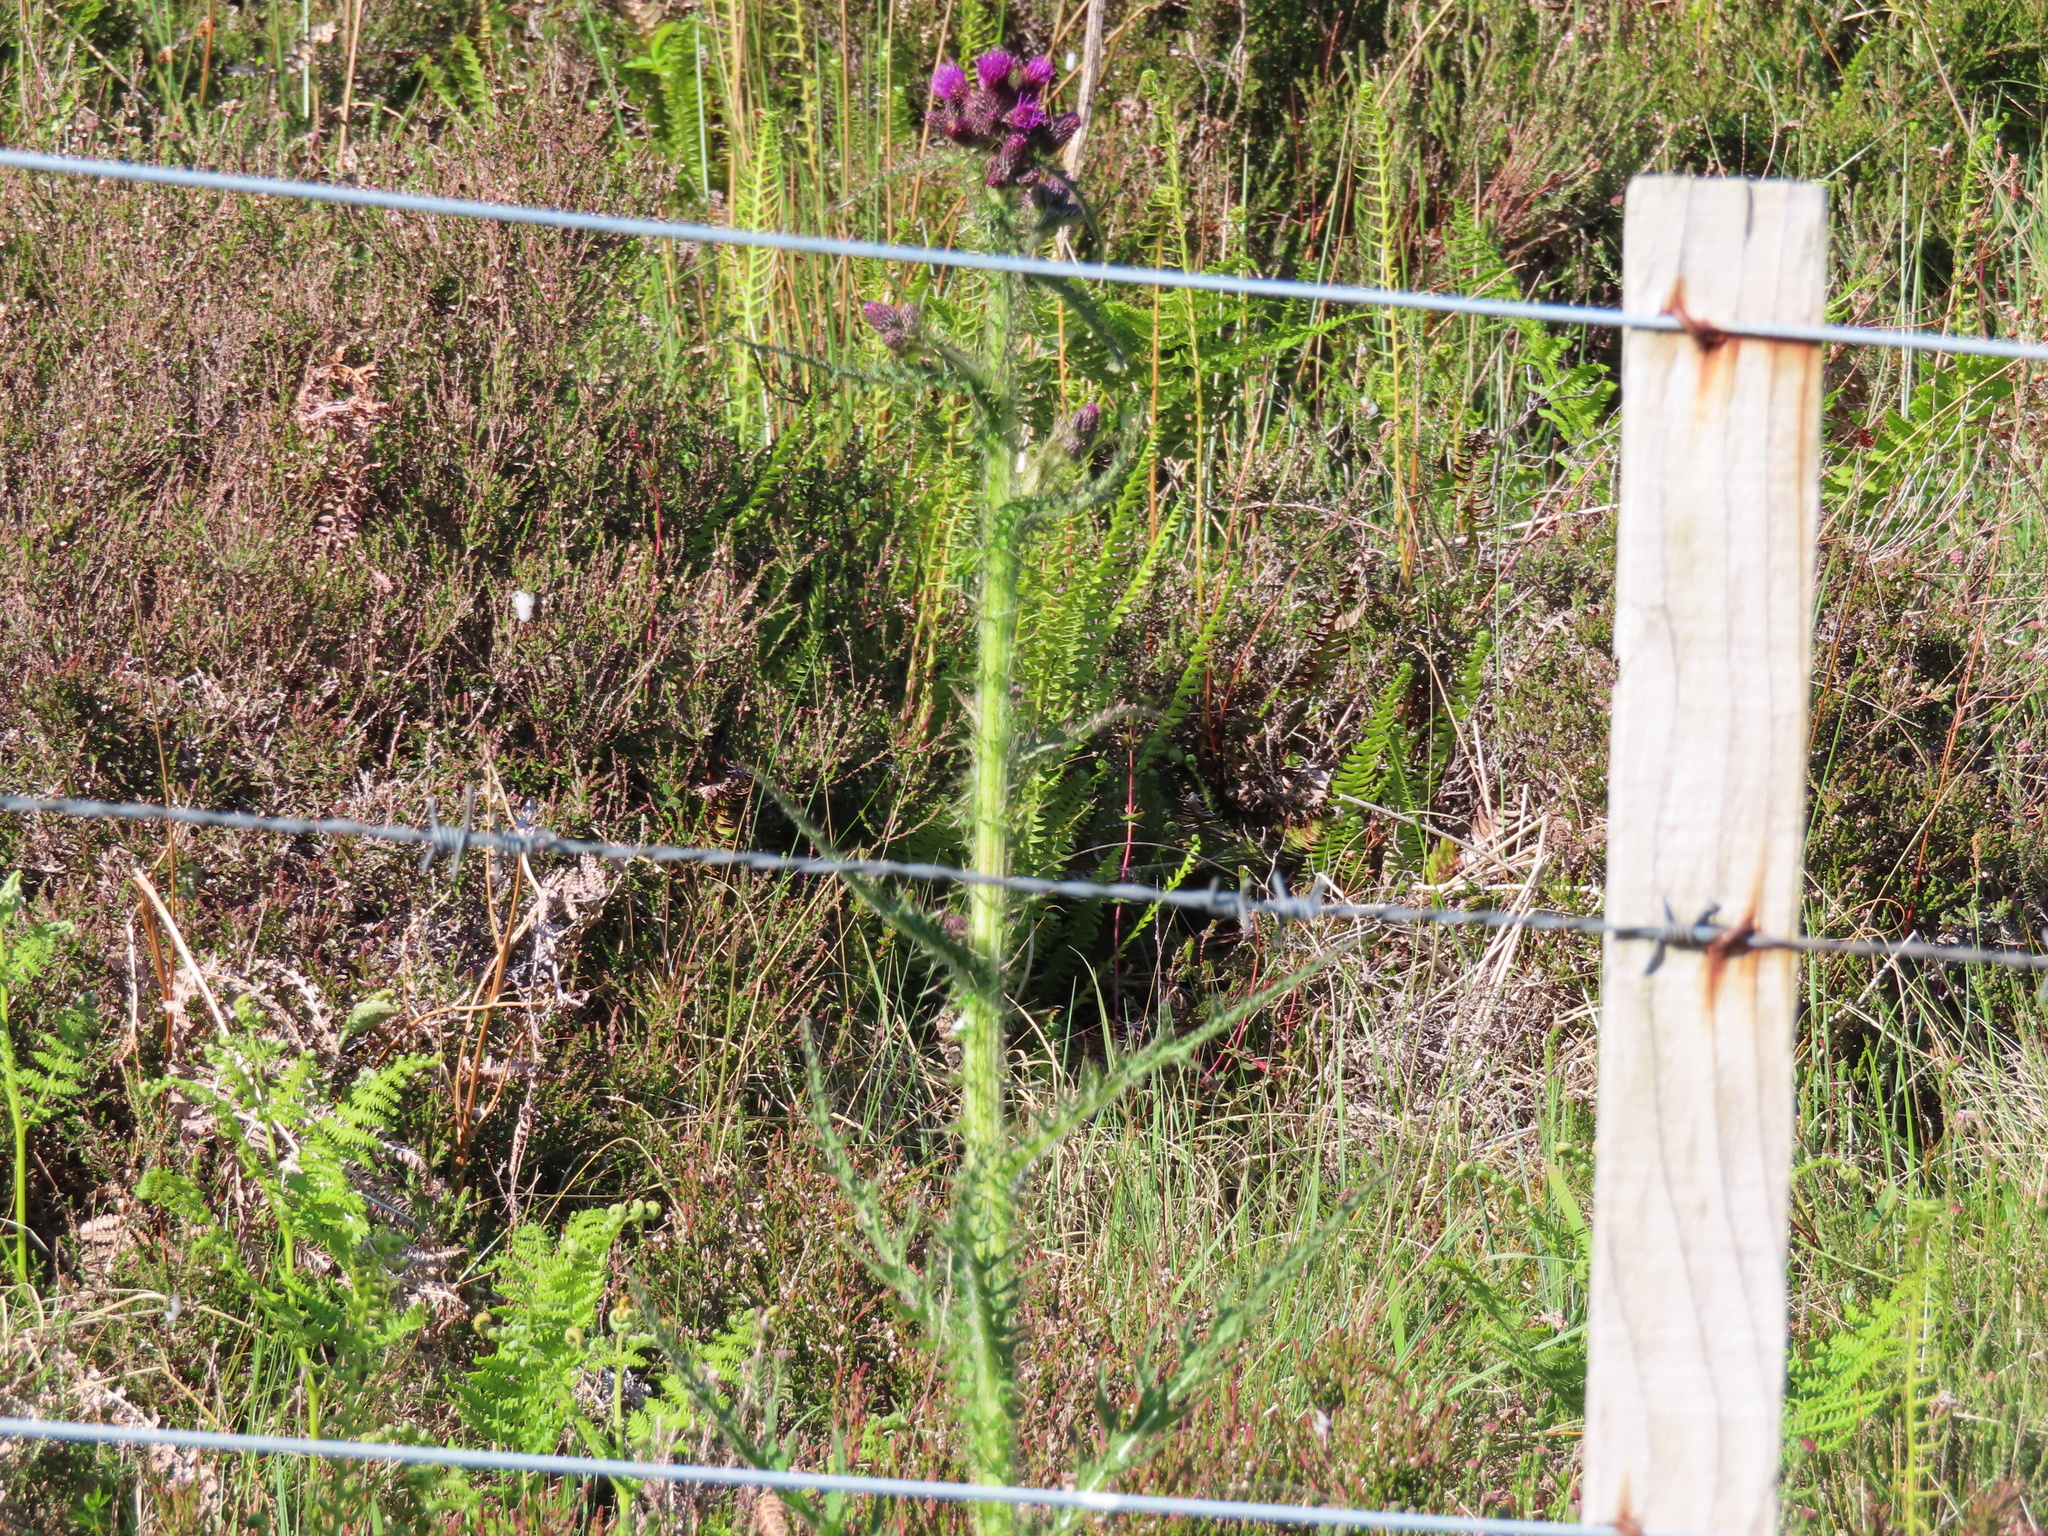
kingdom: Plantae
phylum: Tracheophyta
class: Magnoliopsida
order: Asterales
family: Asteraceae
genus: Cirsium
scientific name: Cirsium palustre
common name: Marsh thistle
